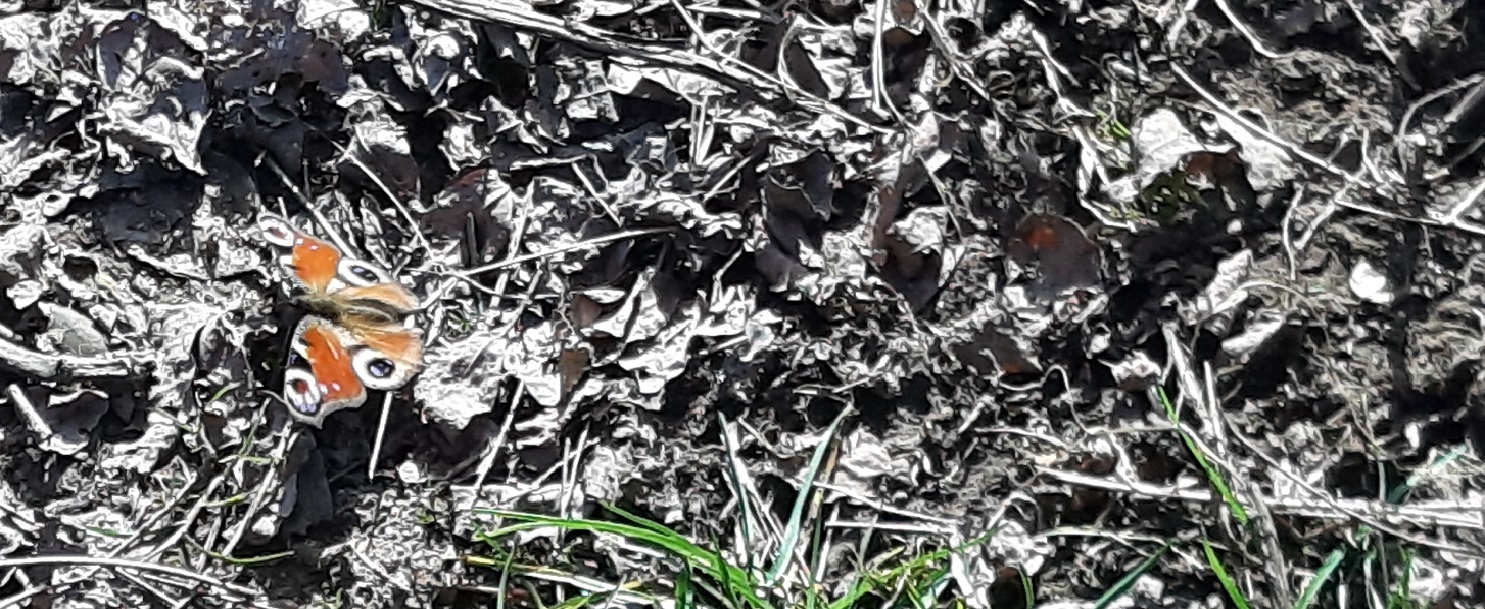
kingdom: Animalia
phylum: Arthropoda
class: Insecta
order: Lepidoptera
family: Nymphalidae
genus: Aglais
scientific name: Aglais io
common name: Peacock
